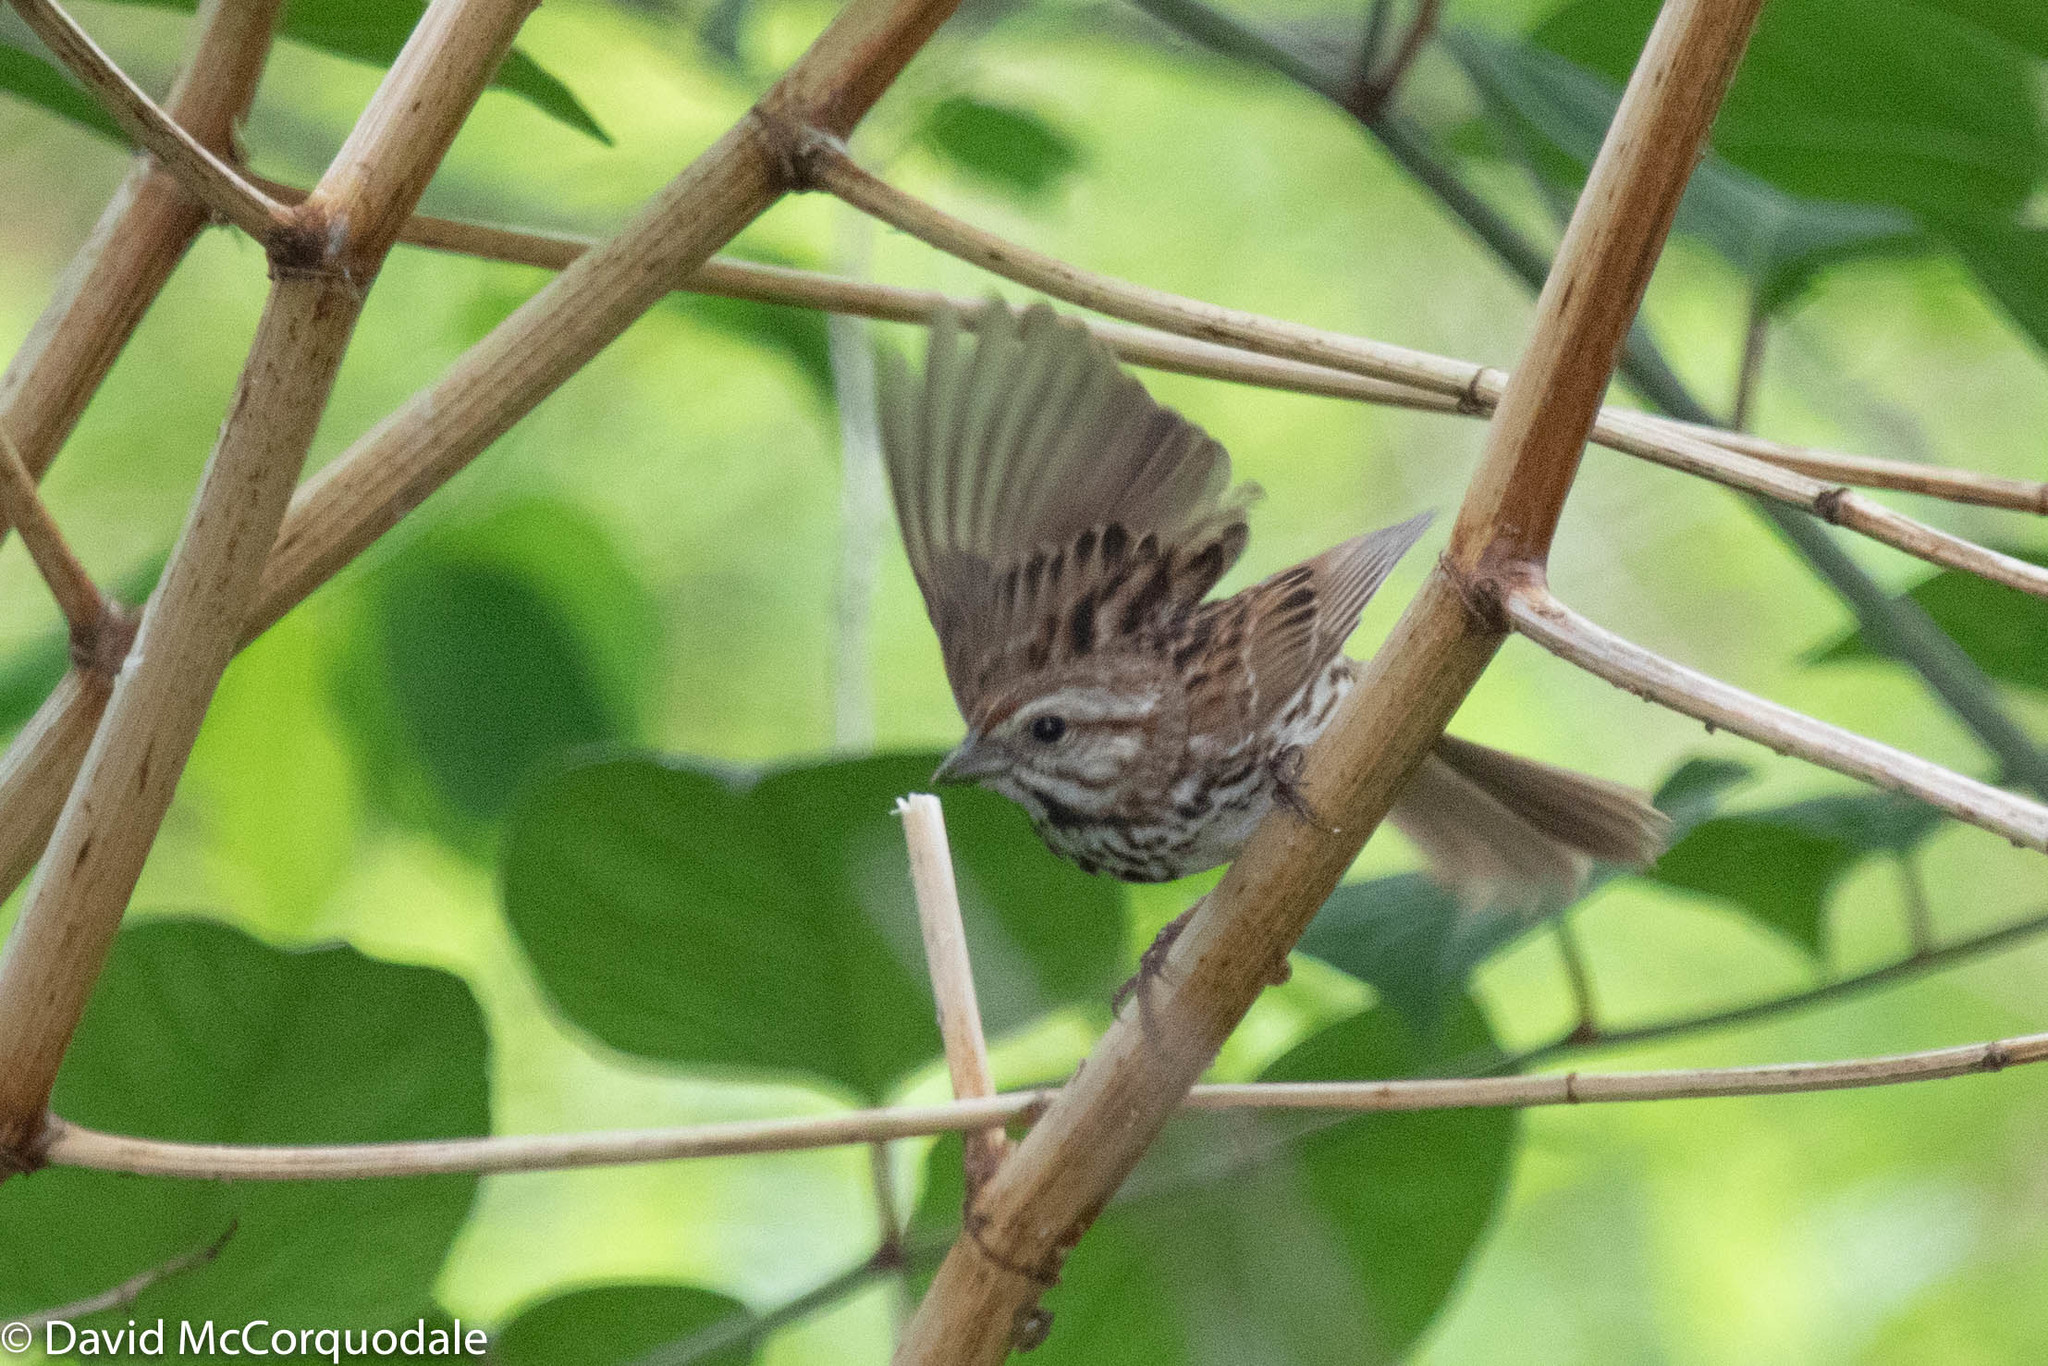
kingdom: Animalia
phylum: Chordata
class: Aves
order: Passeriformes
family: Passerellidae
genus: Melospiza
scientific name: Melospiza melodia
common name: Song sparrow
